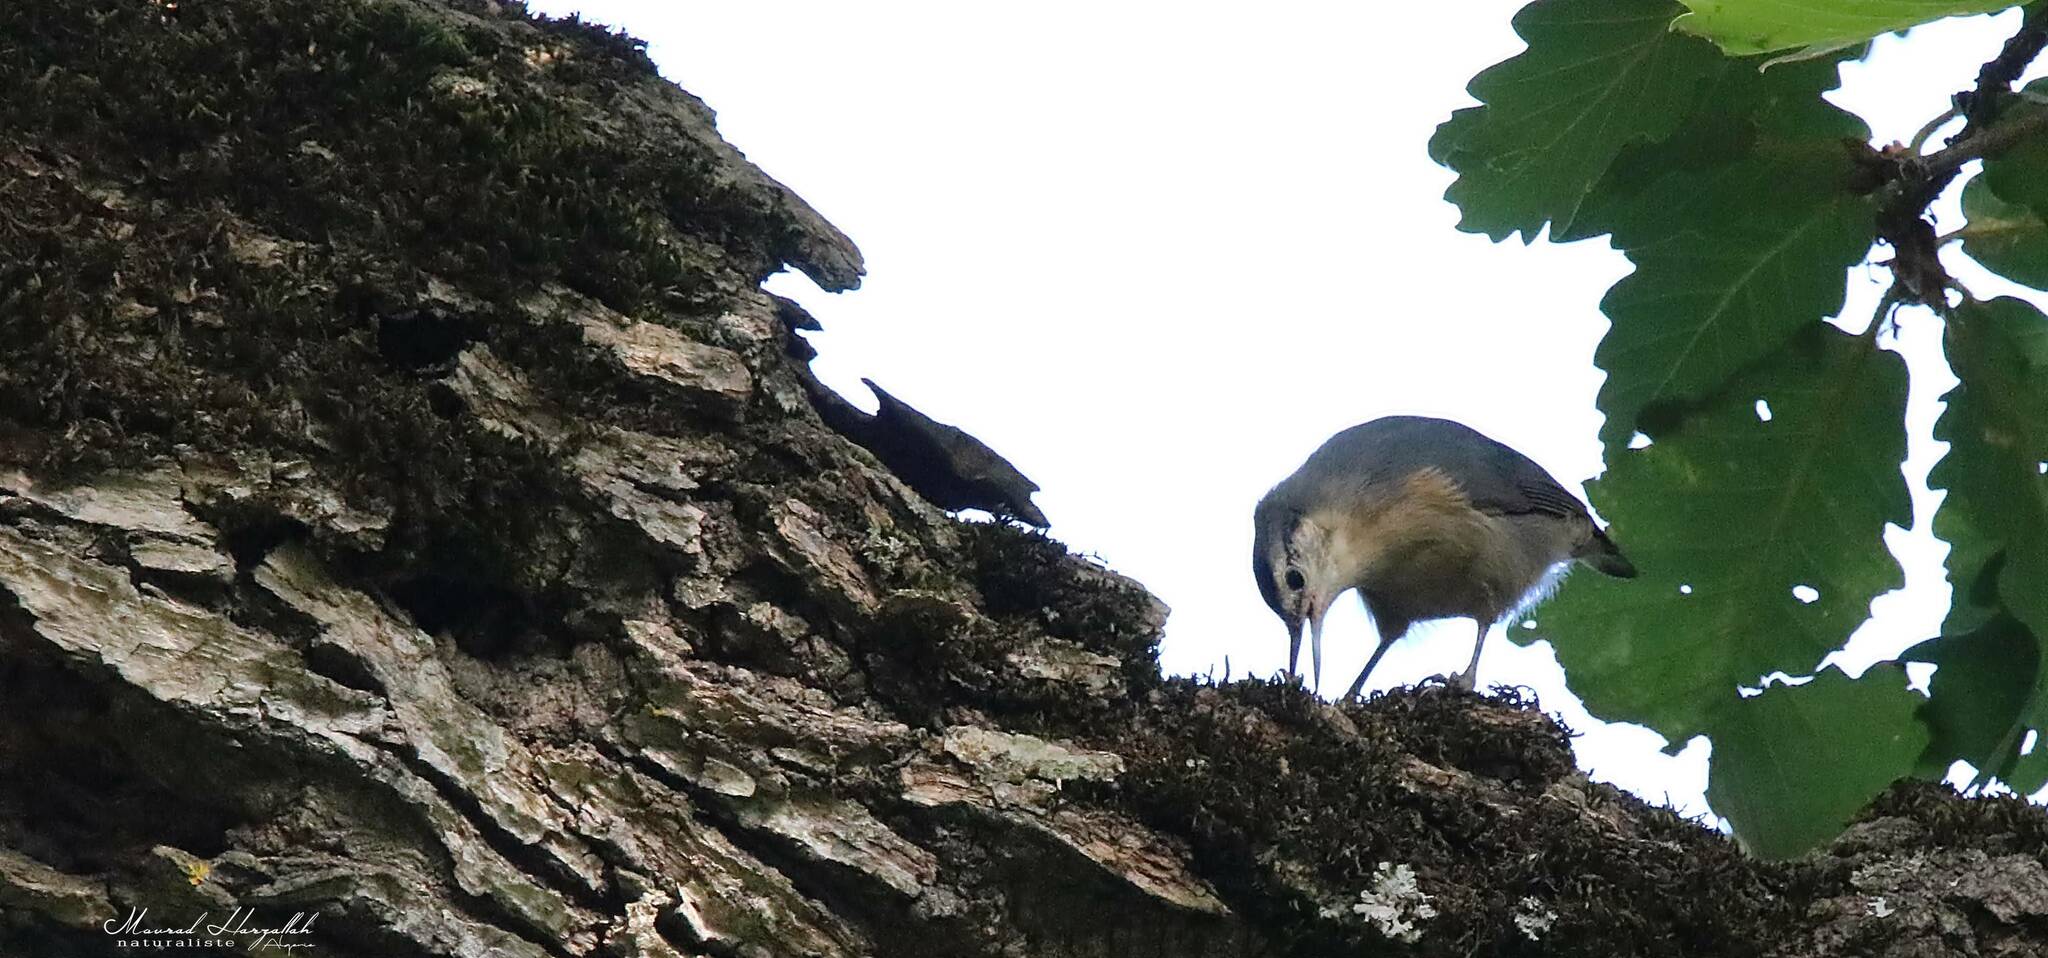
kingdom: Animalia
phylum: Chordata
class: Aves
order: Passeriformes
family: Sittidae
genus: Sitta
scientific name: Sitta ledanti
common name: Algerian nuthatch
